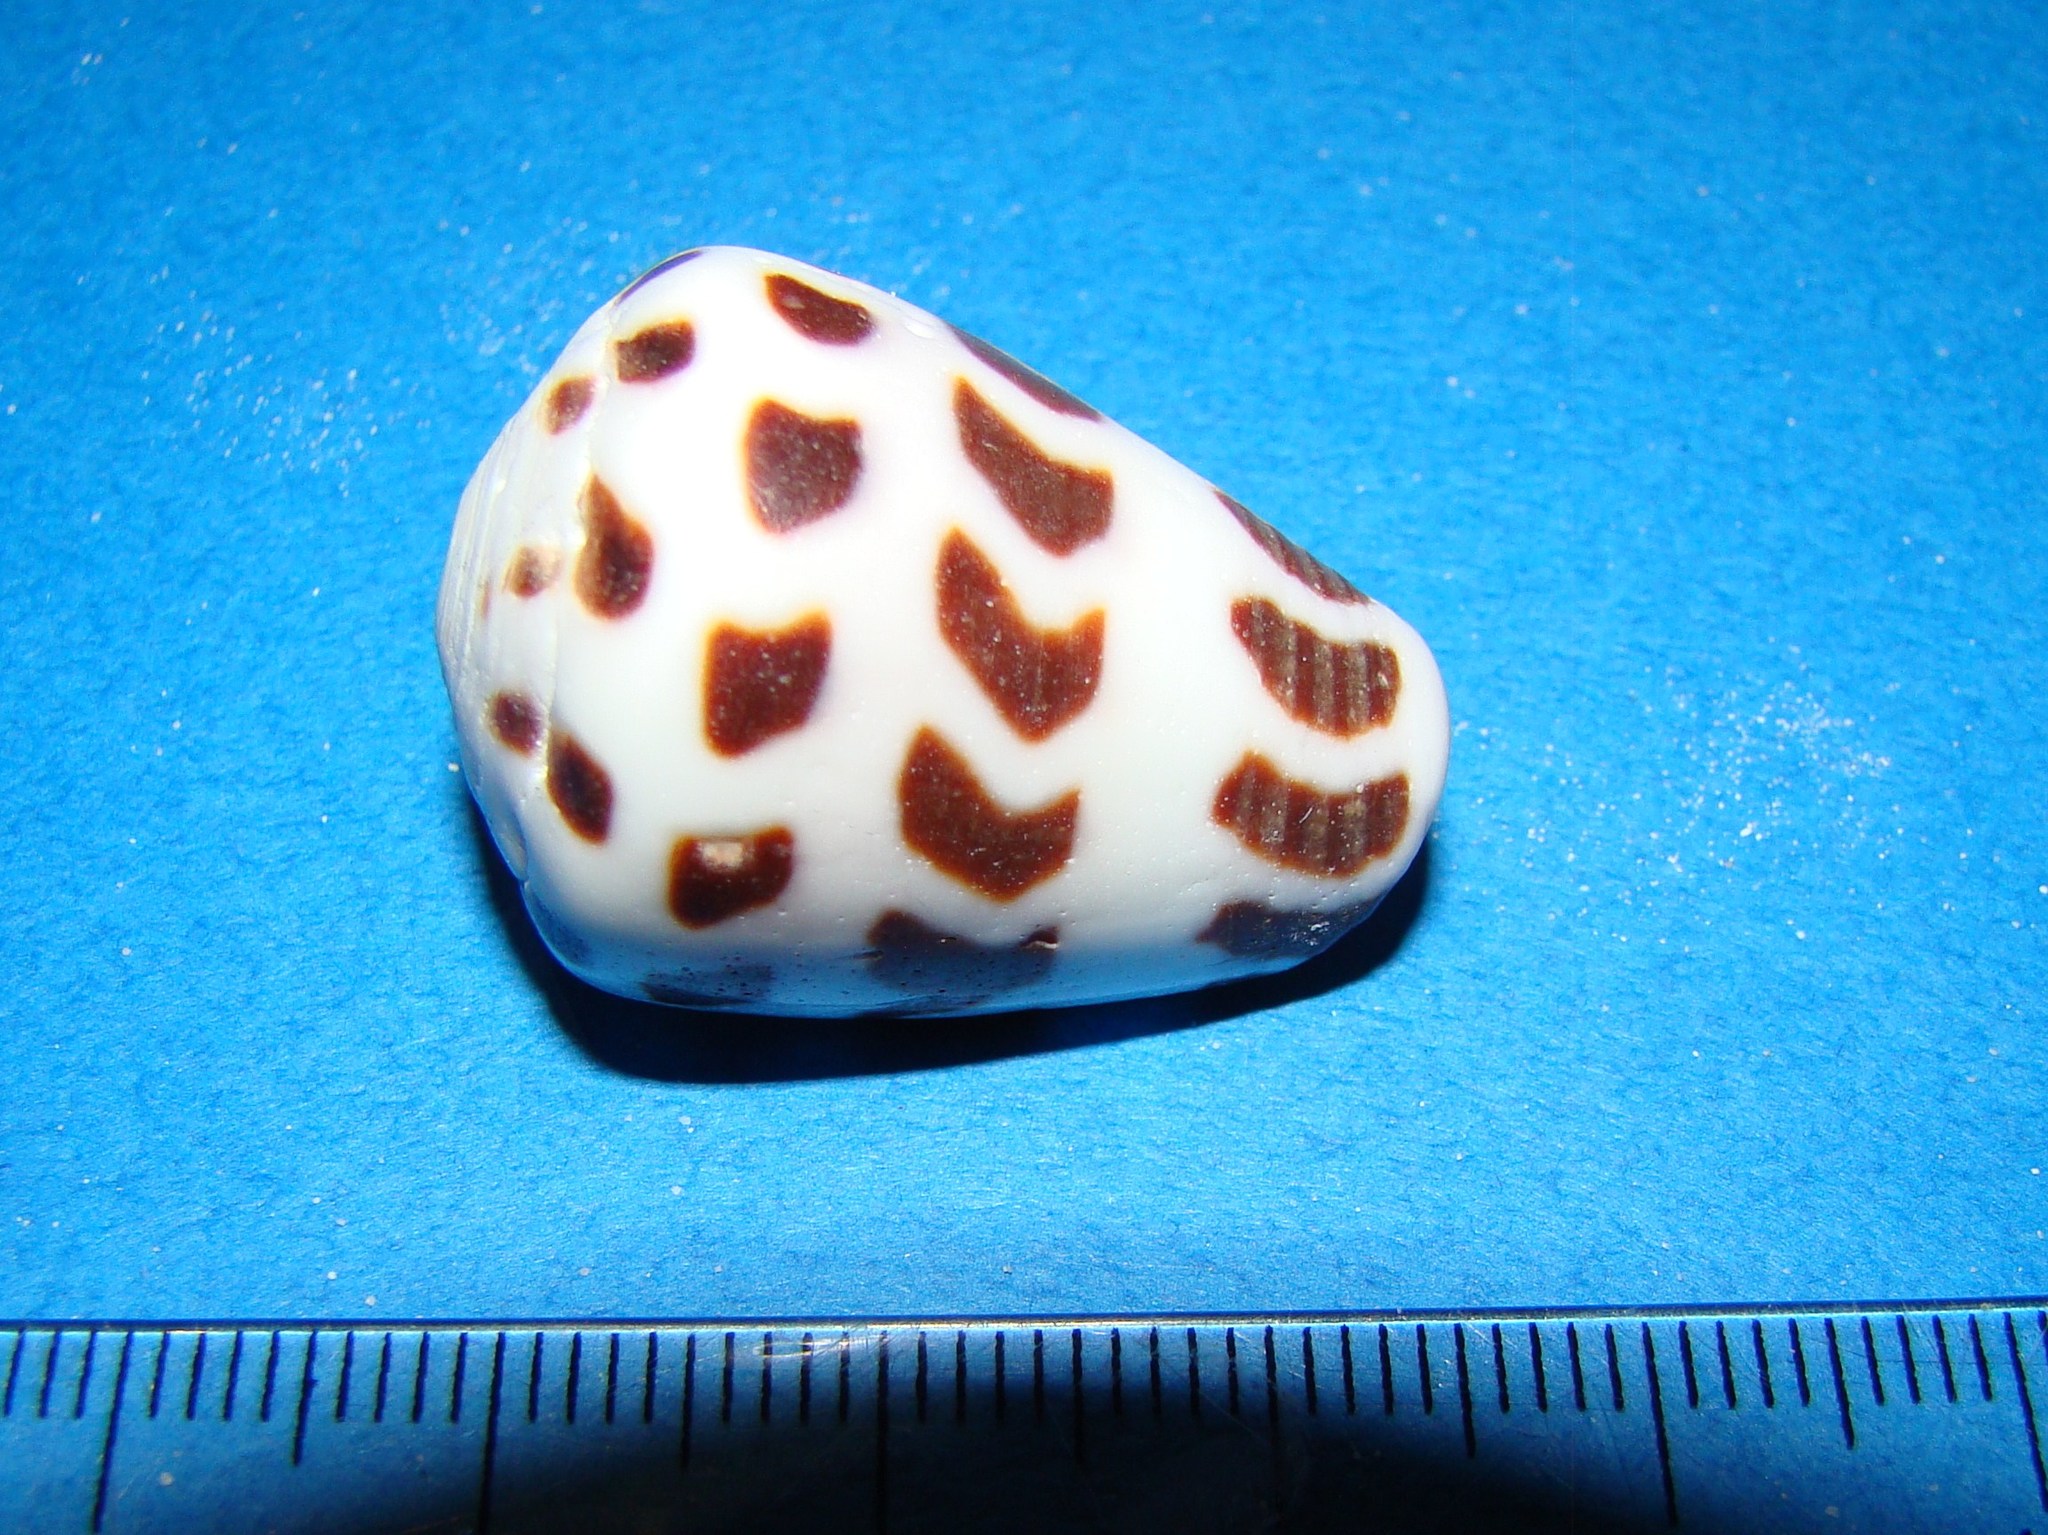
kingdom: Animalia
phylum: Mollusca
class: Gastropoda
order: Neogastropoda
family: Conidae
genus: Conus
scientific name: Conus eburneus
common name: Ivory cone
